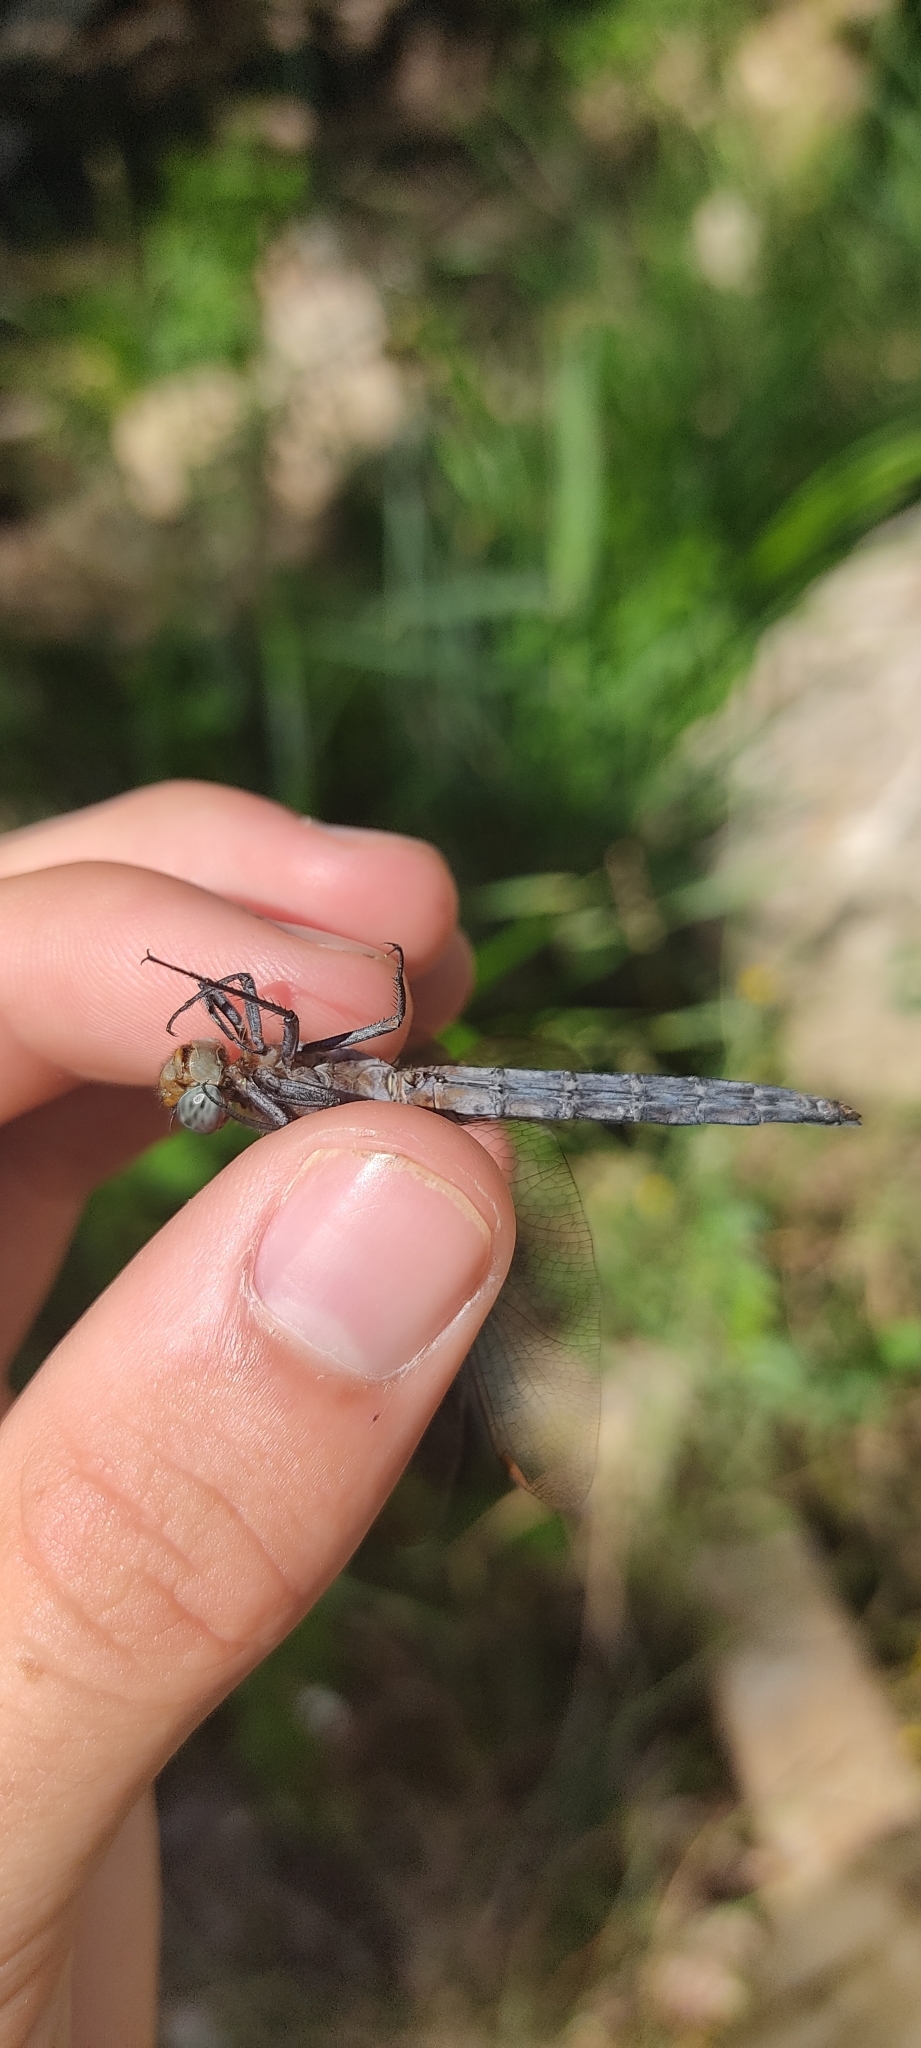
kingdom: Animalia
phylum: Arthropoda
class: Insecta
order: Odonata
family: Libellulidae
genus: Orthetrum
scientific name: Orthetrum coerulescens
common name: Keeled skimmer
